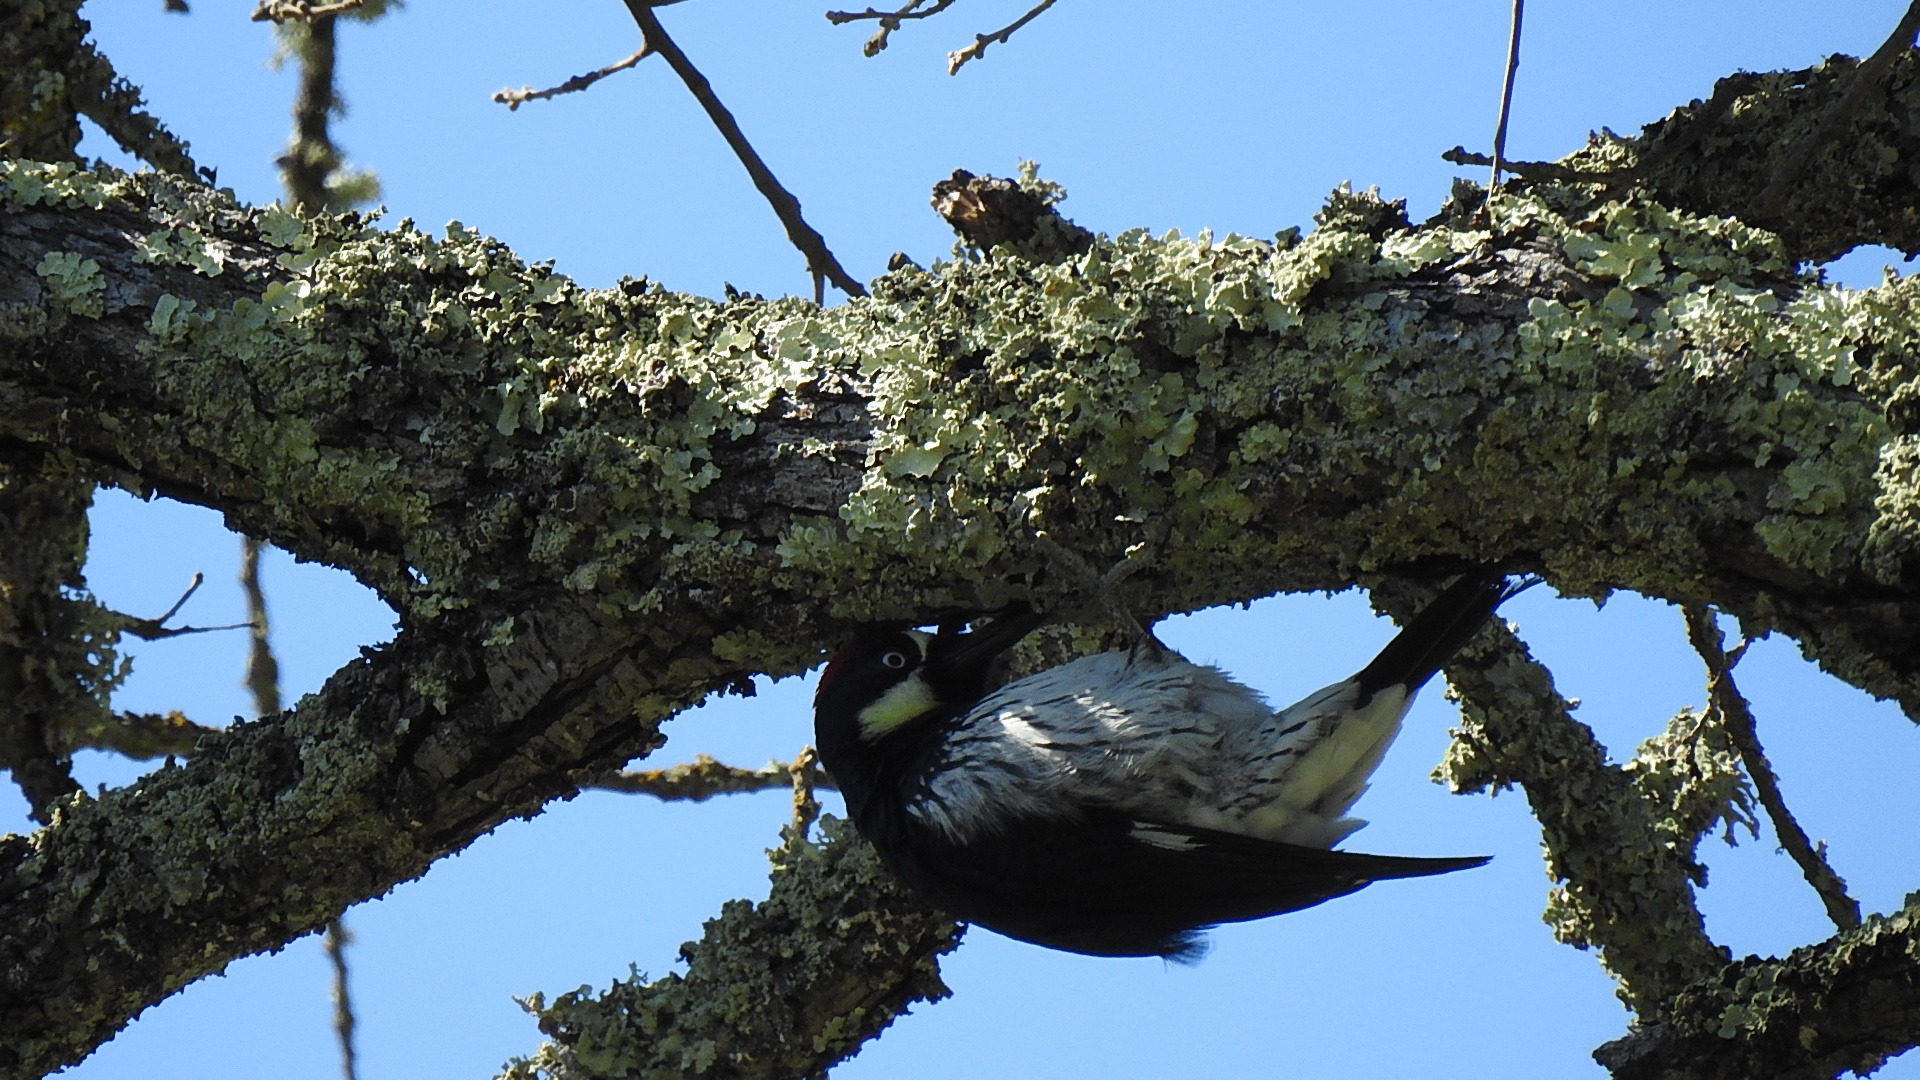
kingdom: Animalia
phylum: Chordata
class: Aves
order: Piciformes
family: Picidae
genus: Melanerpes
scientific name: Melanerpes formicivorus
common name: Acorn woodpecker
